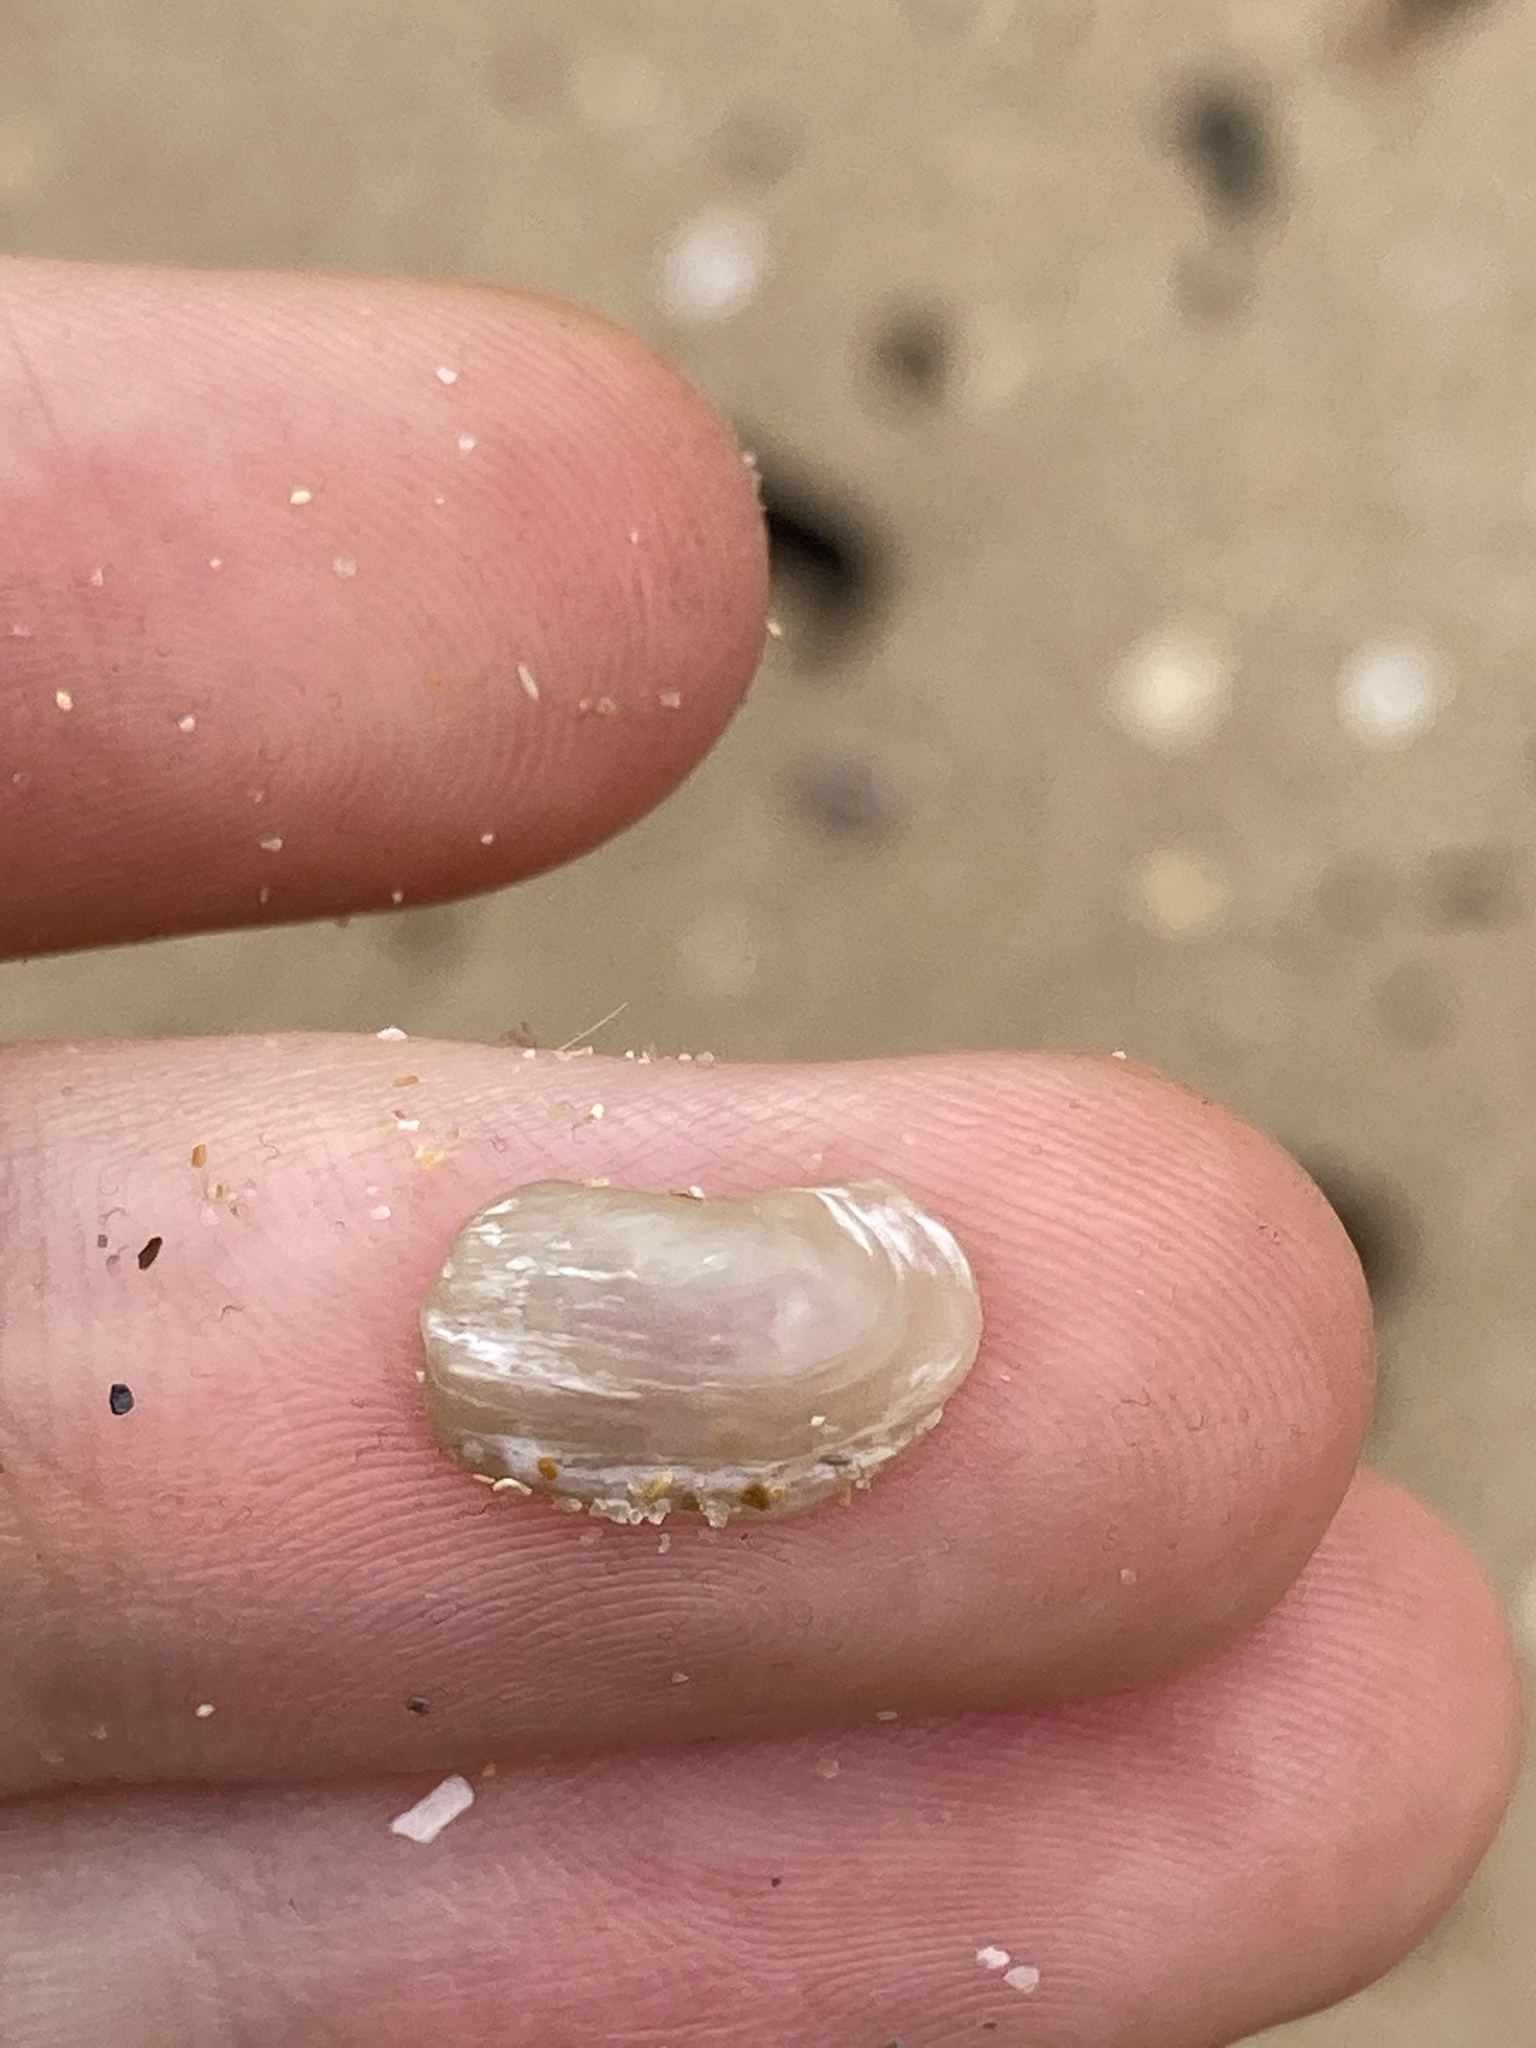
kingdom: Animalia
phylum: Mollusca
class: Bivalvia
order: Adapedonta
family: Hiatellidae
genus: Hiatella
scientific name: Hiatella australis
